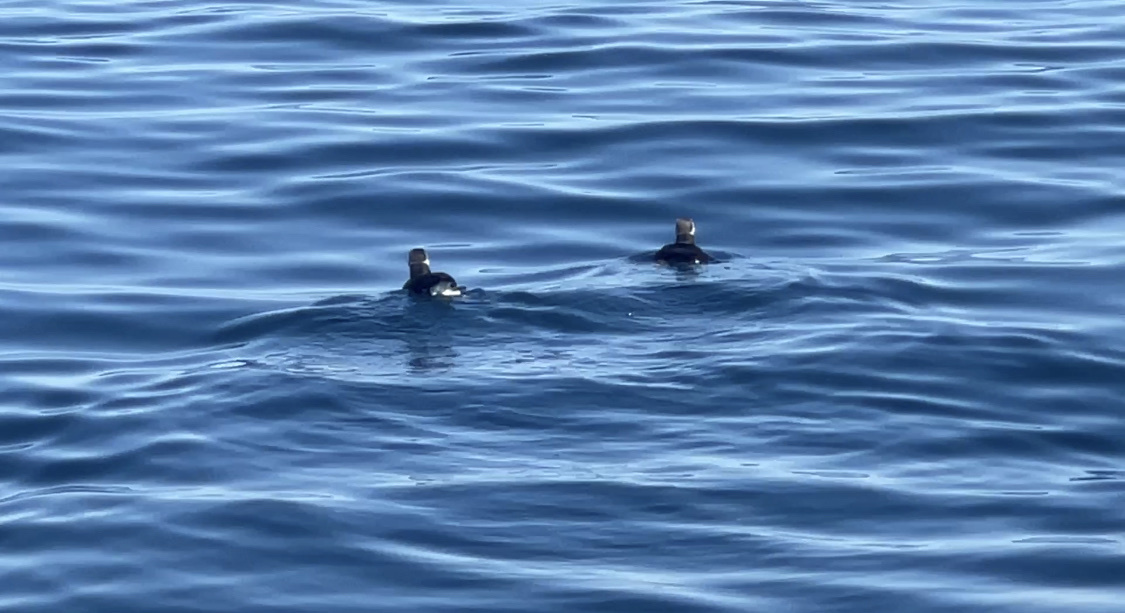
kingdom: Animalia
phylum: Chordata
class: Aves
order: Charadriiformes
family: Alcidae
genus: Fratercula
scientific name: Fratercula arctica
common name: Atlantic puffin
